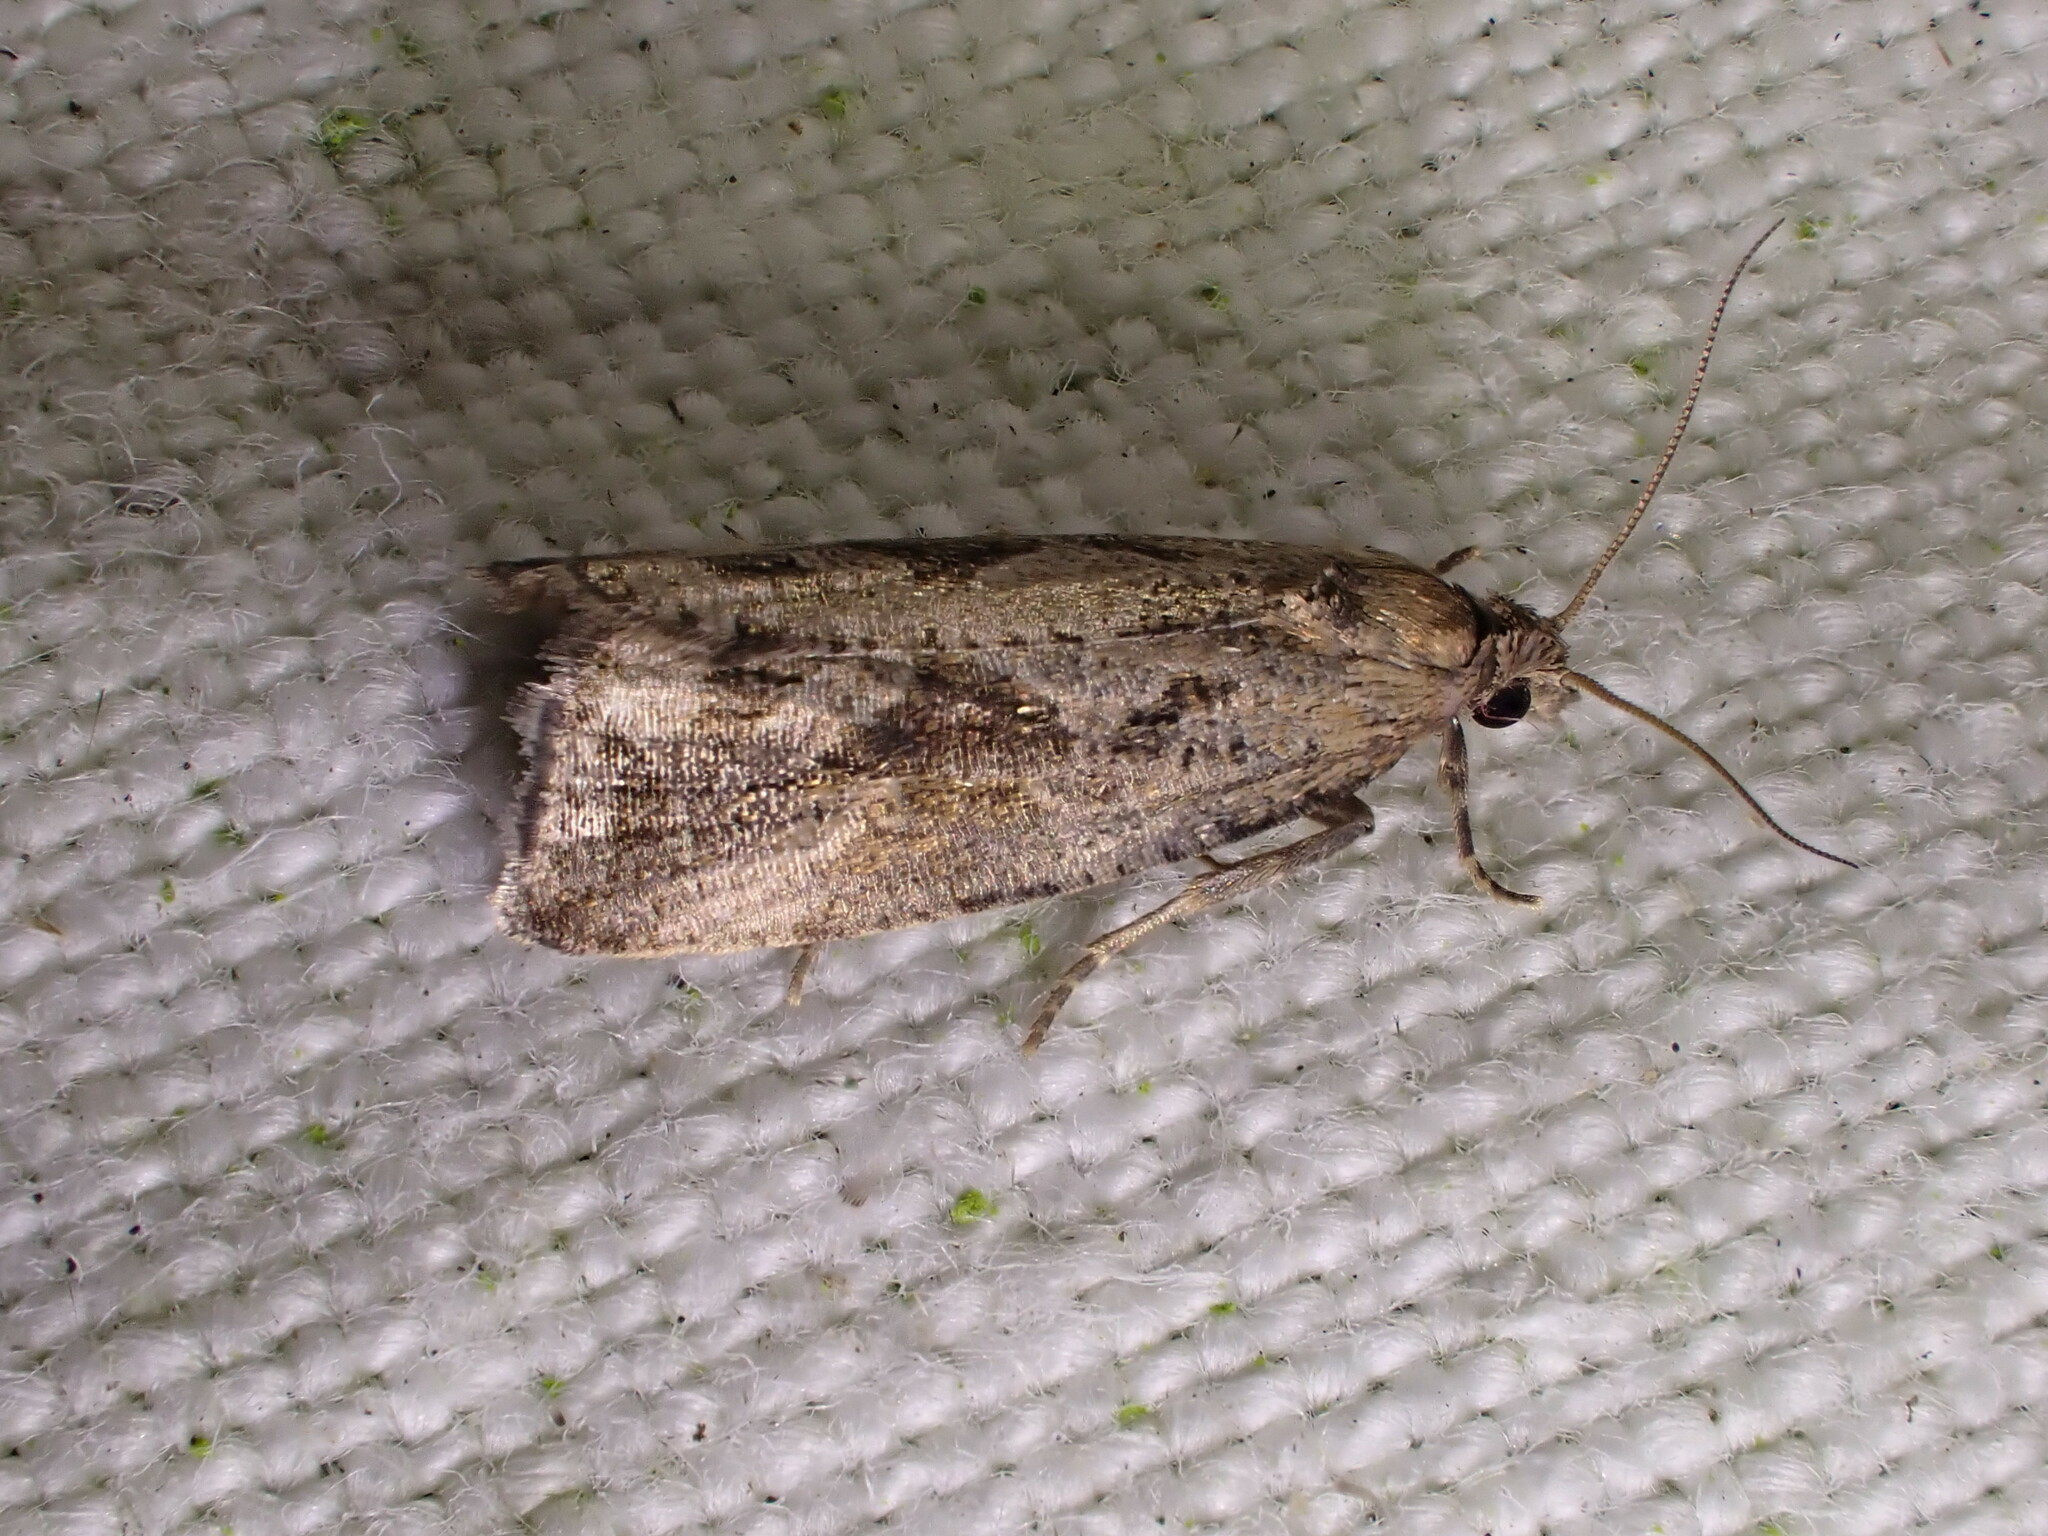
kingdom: Animalia
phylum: Arthropoda
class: Insecta
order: Lepidoptera
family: Tortricidae
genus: Endothenia
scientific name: Endothenia quadrimaculana
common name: Tortricid moth
